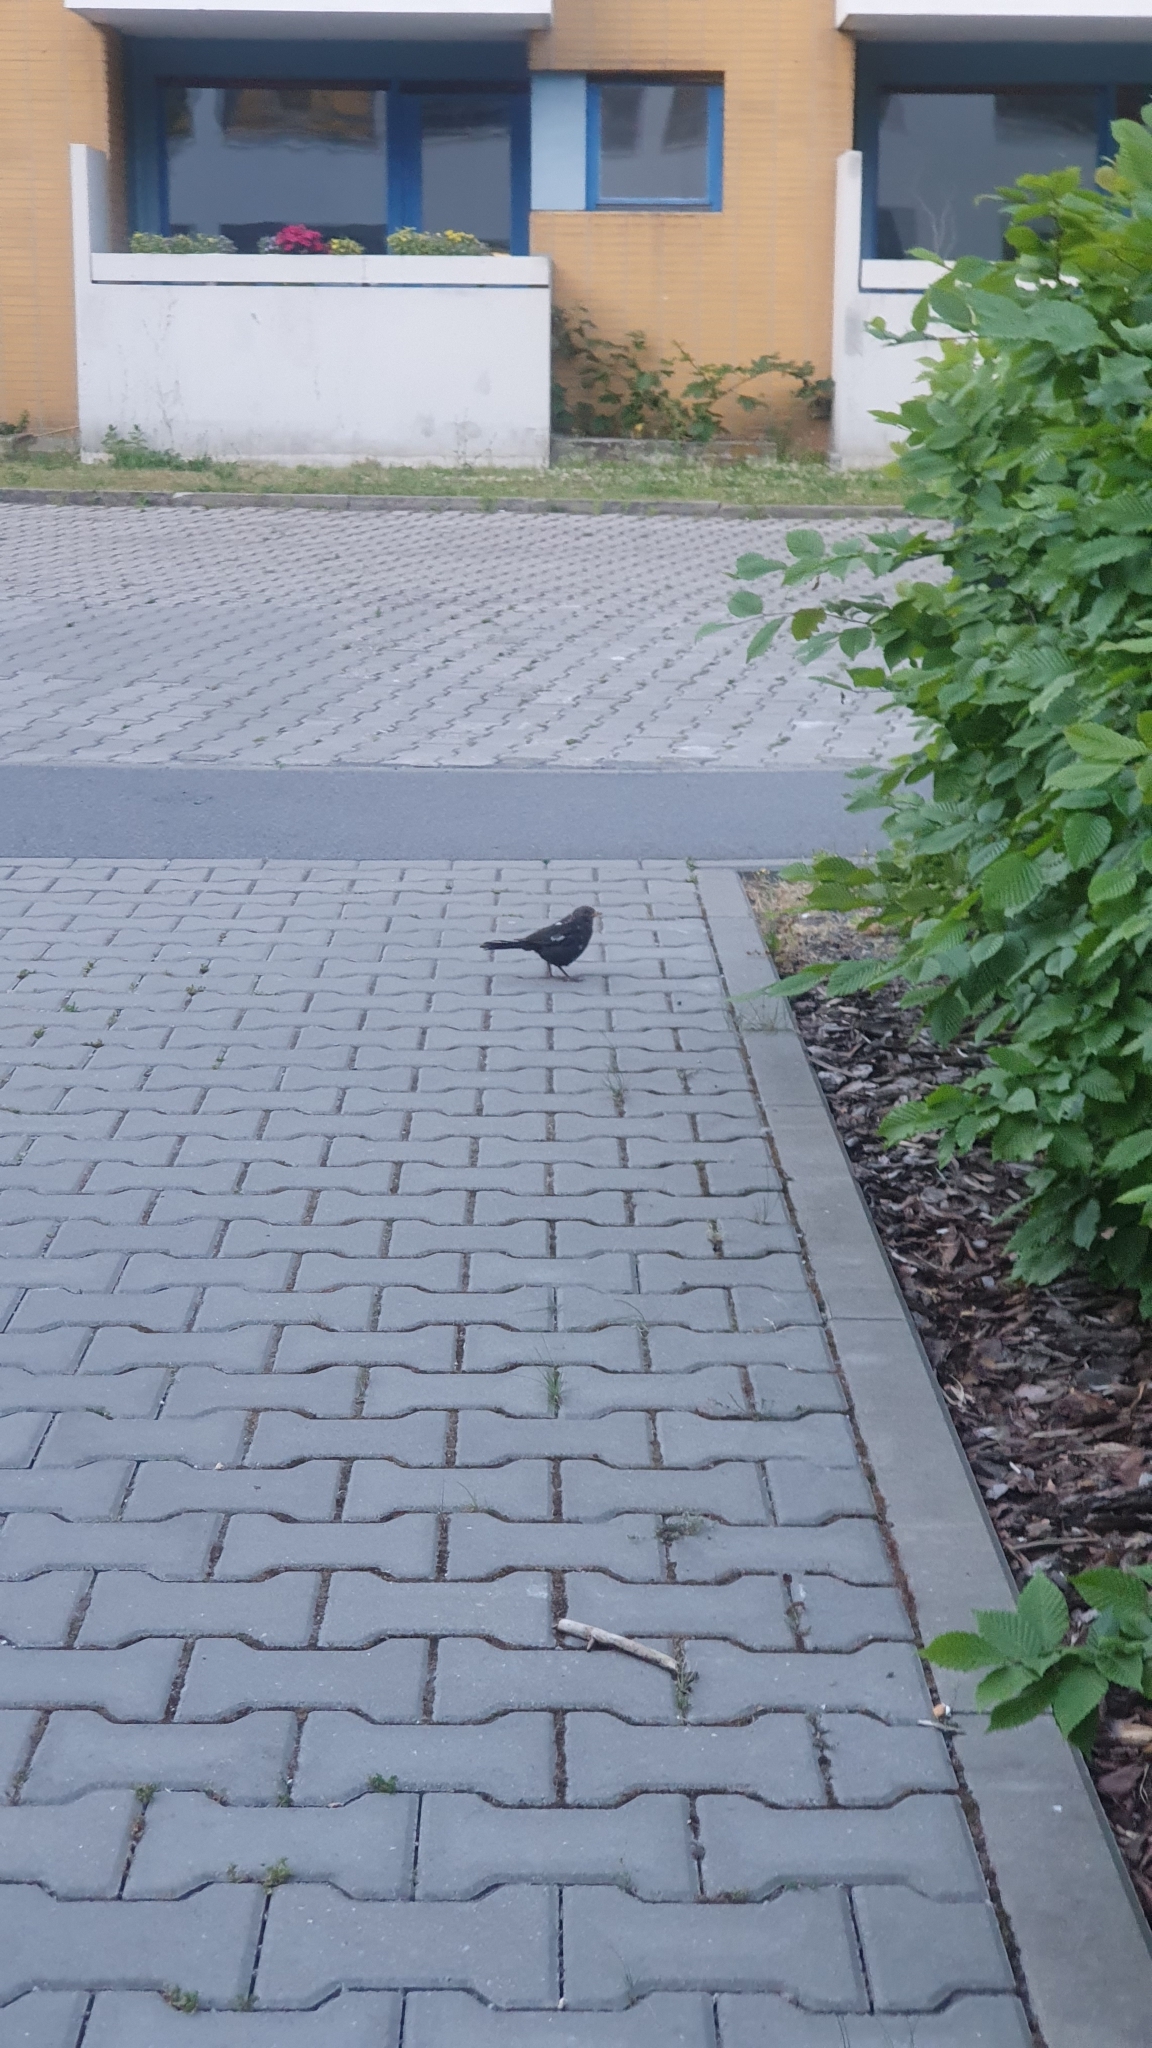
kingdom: Animalia
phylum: Chordata
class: Aves
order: Passeriformes
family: Turdidae
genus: Turdus
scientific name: Turdus merula
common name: Common blackbird
